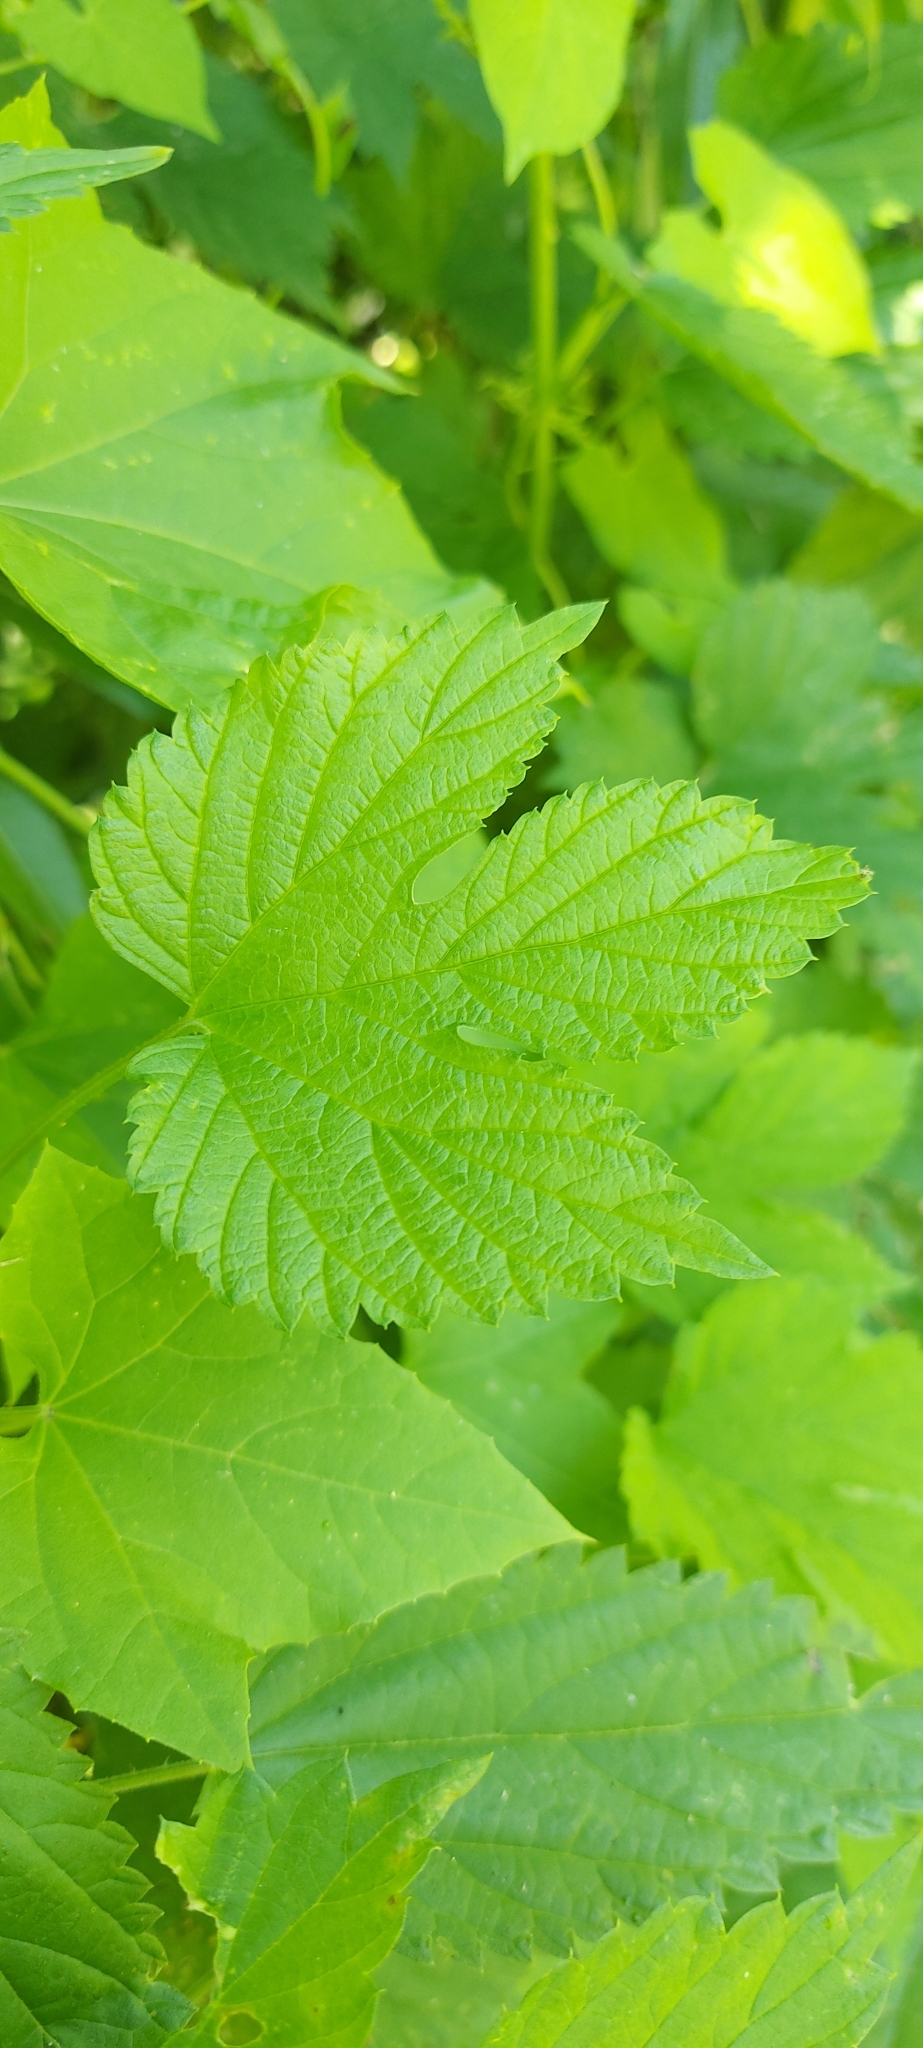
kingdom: Plantae
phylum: Tracheophyta
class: Magnoliopsida
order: Rosales
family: Cannabaceae
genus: Humulus
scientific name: Humulus lupulus
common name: Hop
